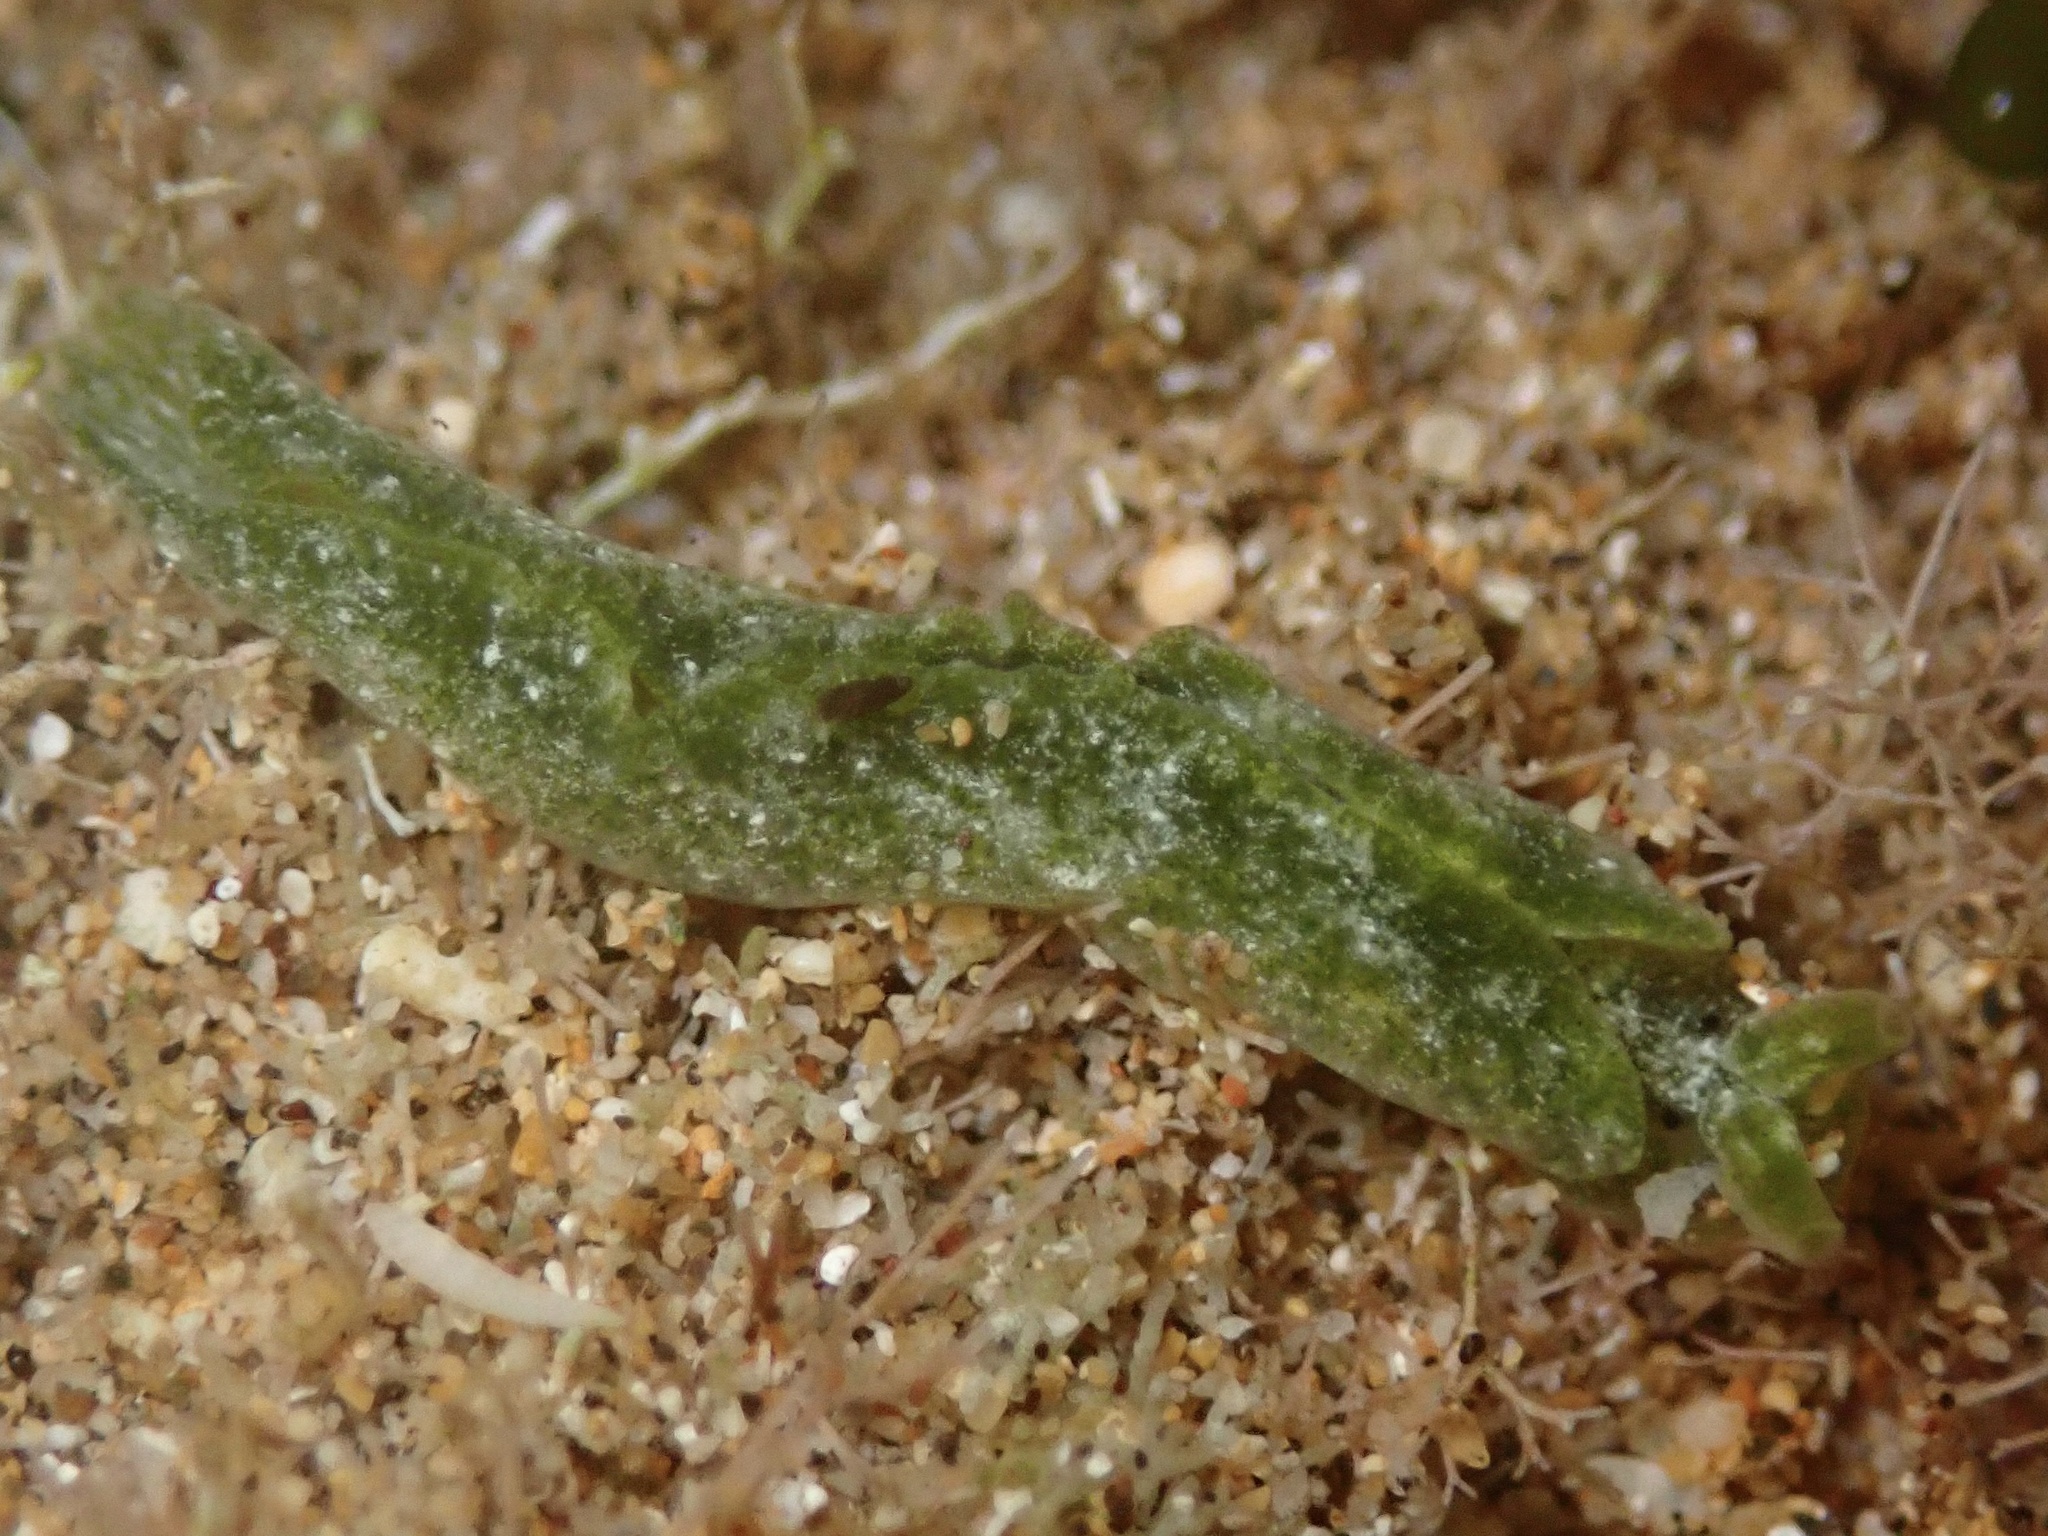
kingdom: Animalia
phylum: Mollusca
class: Gastropoda
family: Plakobranchidae
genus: Elysia
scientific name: Elysia nealae
